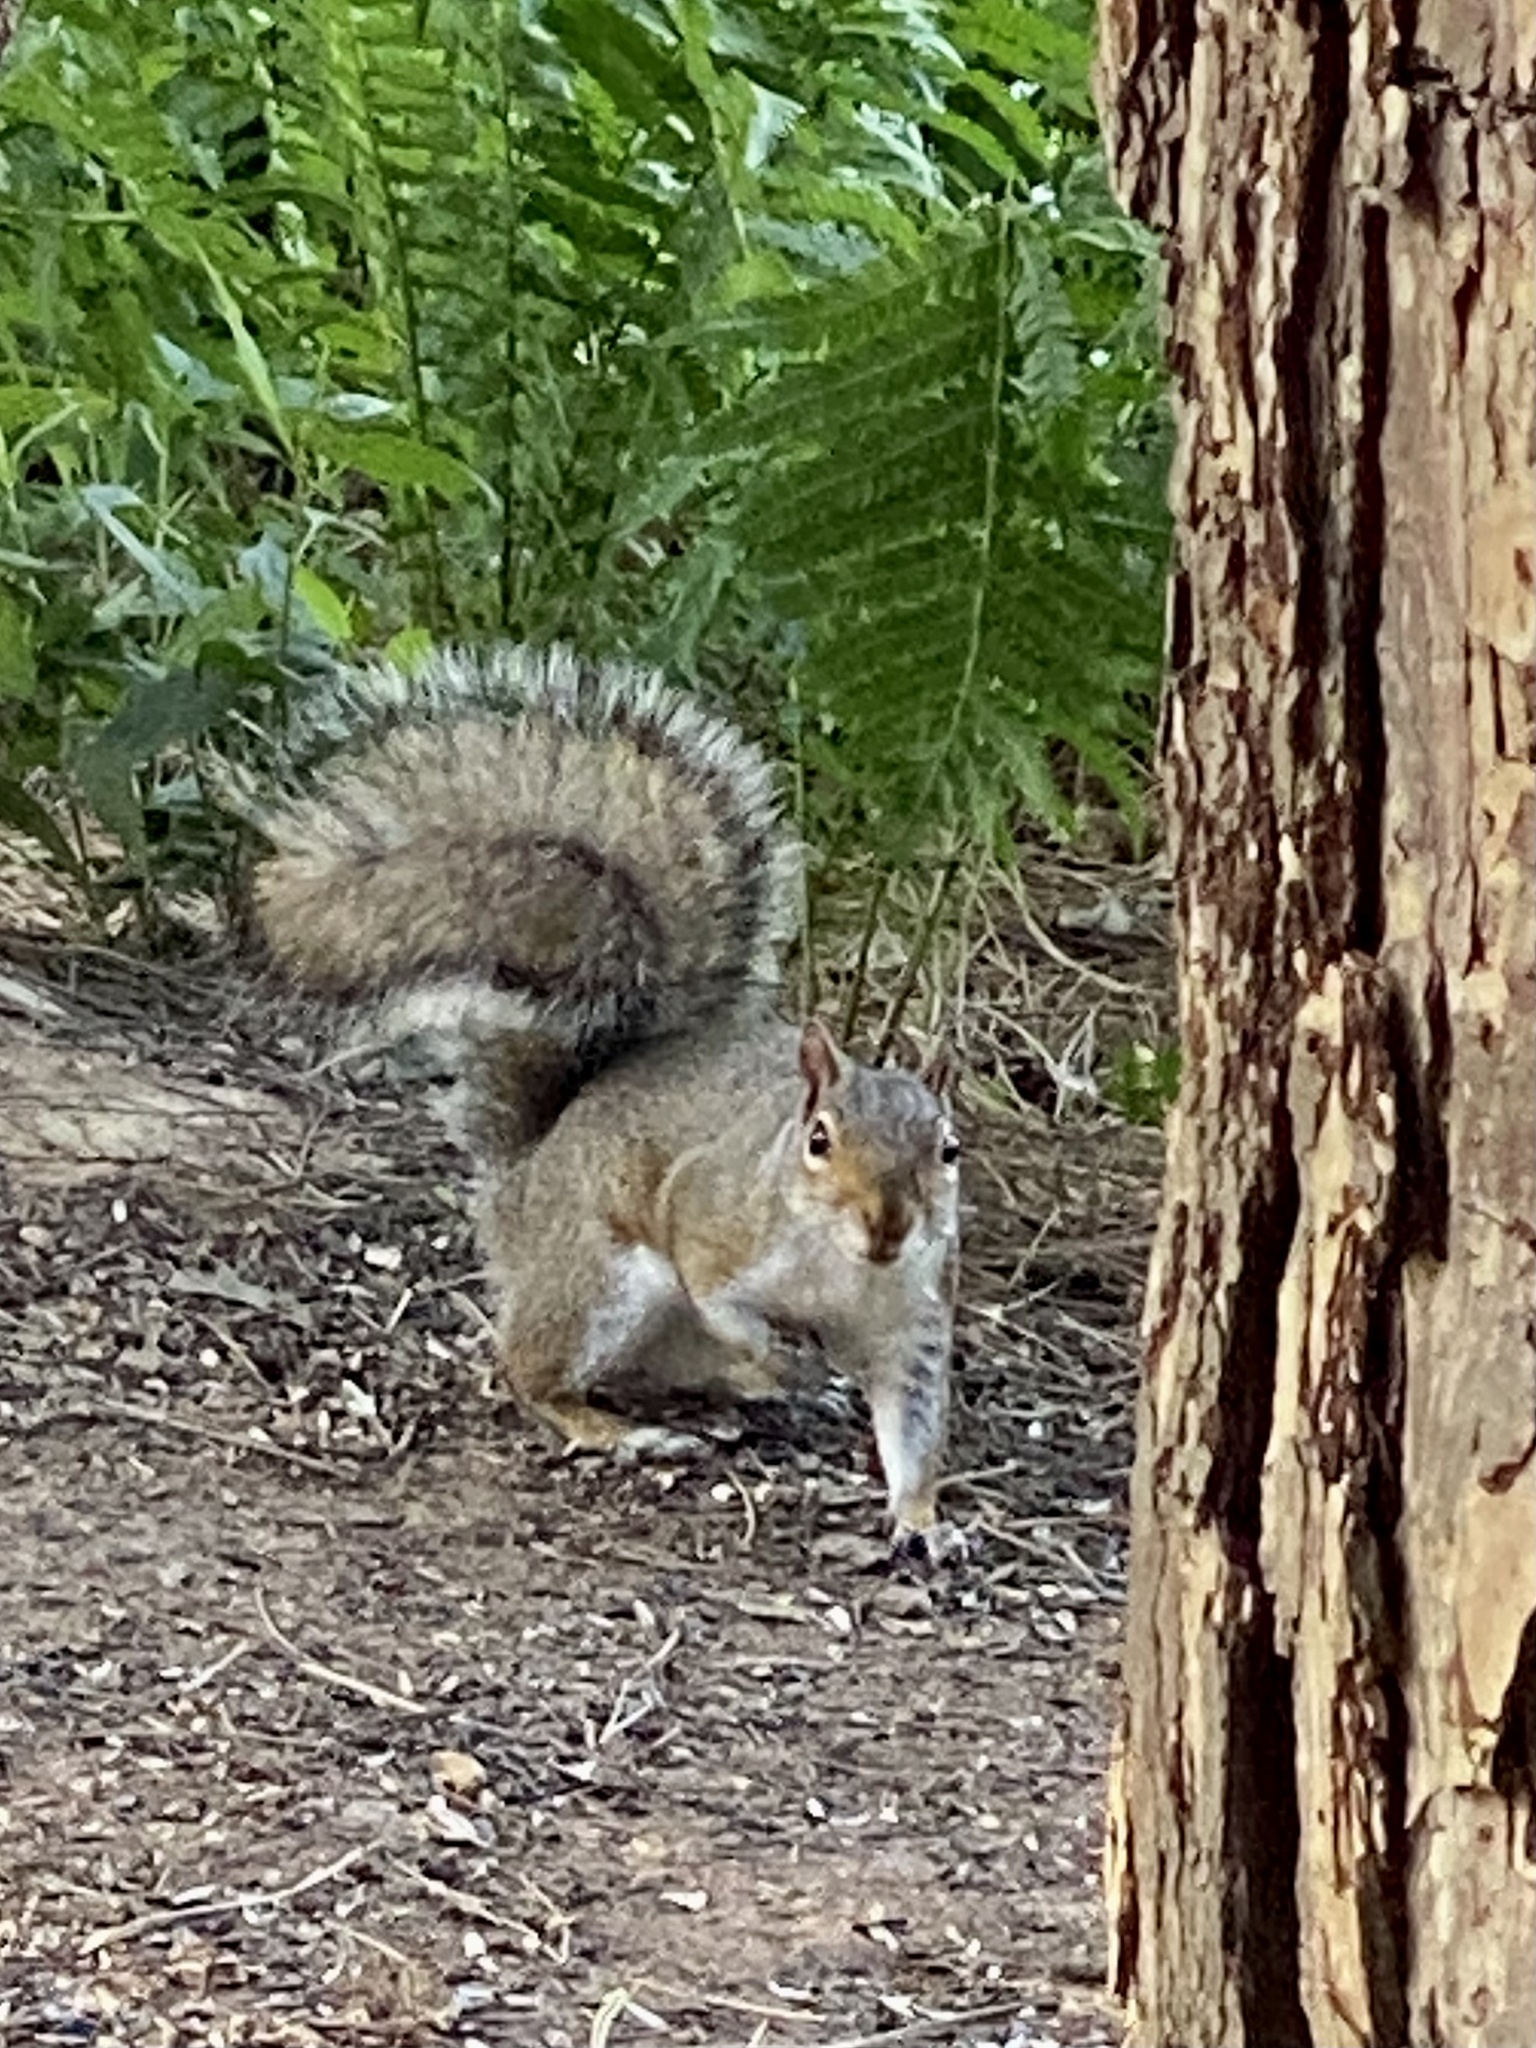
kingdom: Animalia
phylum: Chordata
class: Mammalia
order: Rodentia
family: Sciuridae
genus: Sciurus
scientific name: Sciurus carolinensis
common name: Eastern gray squirrel
